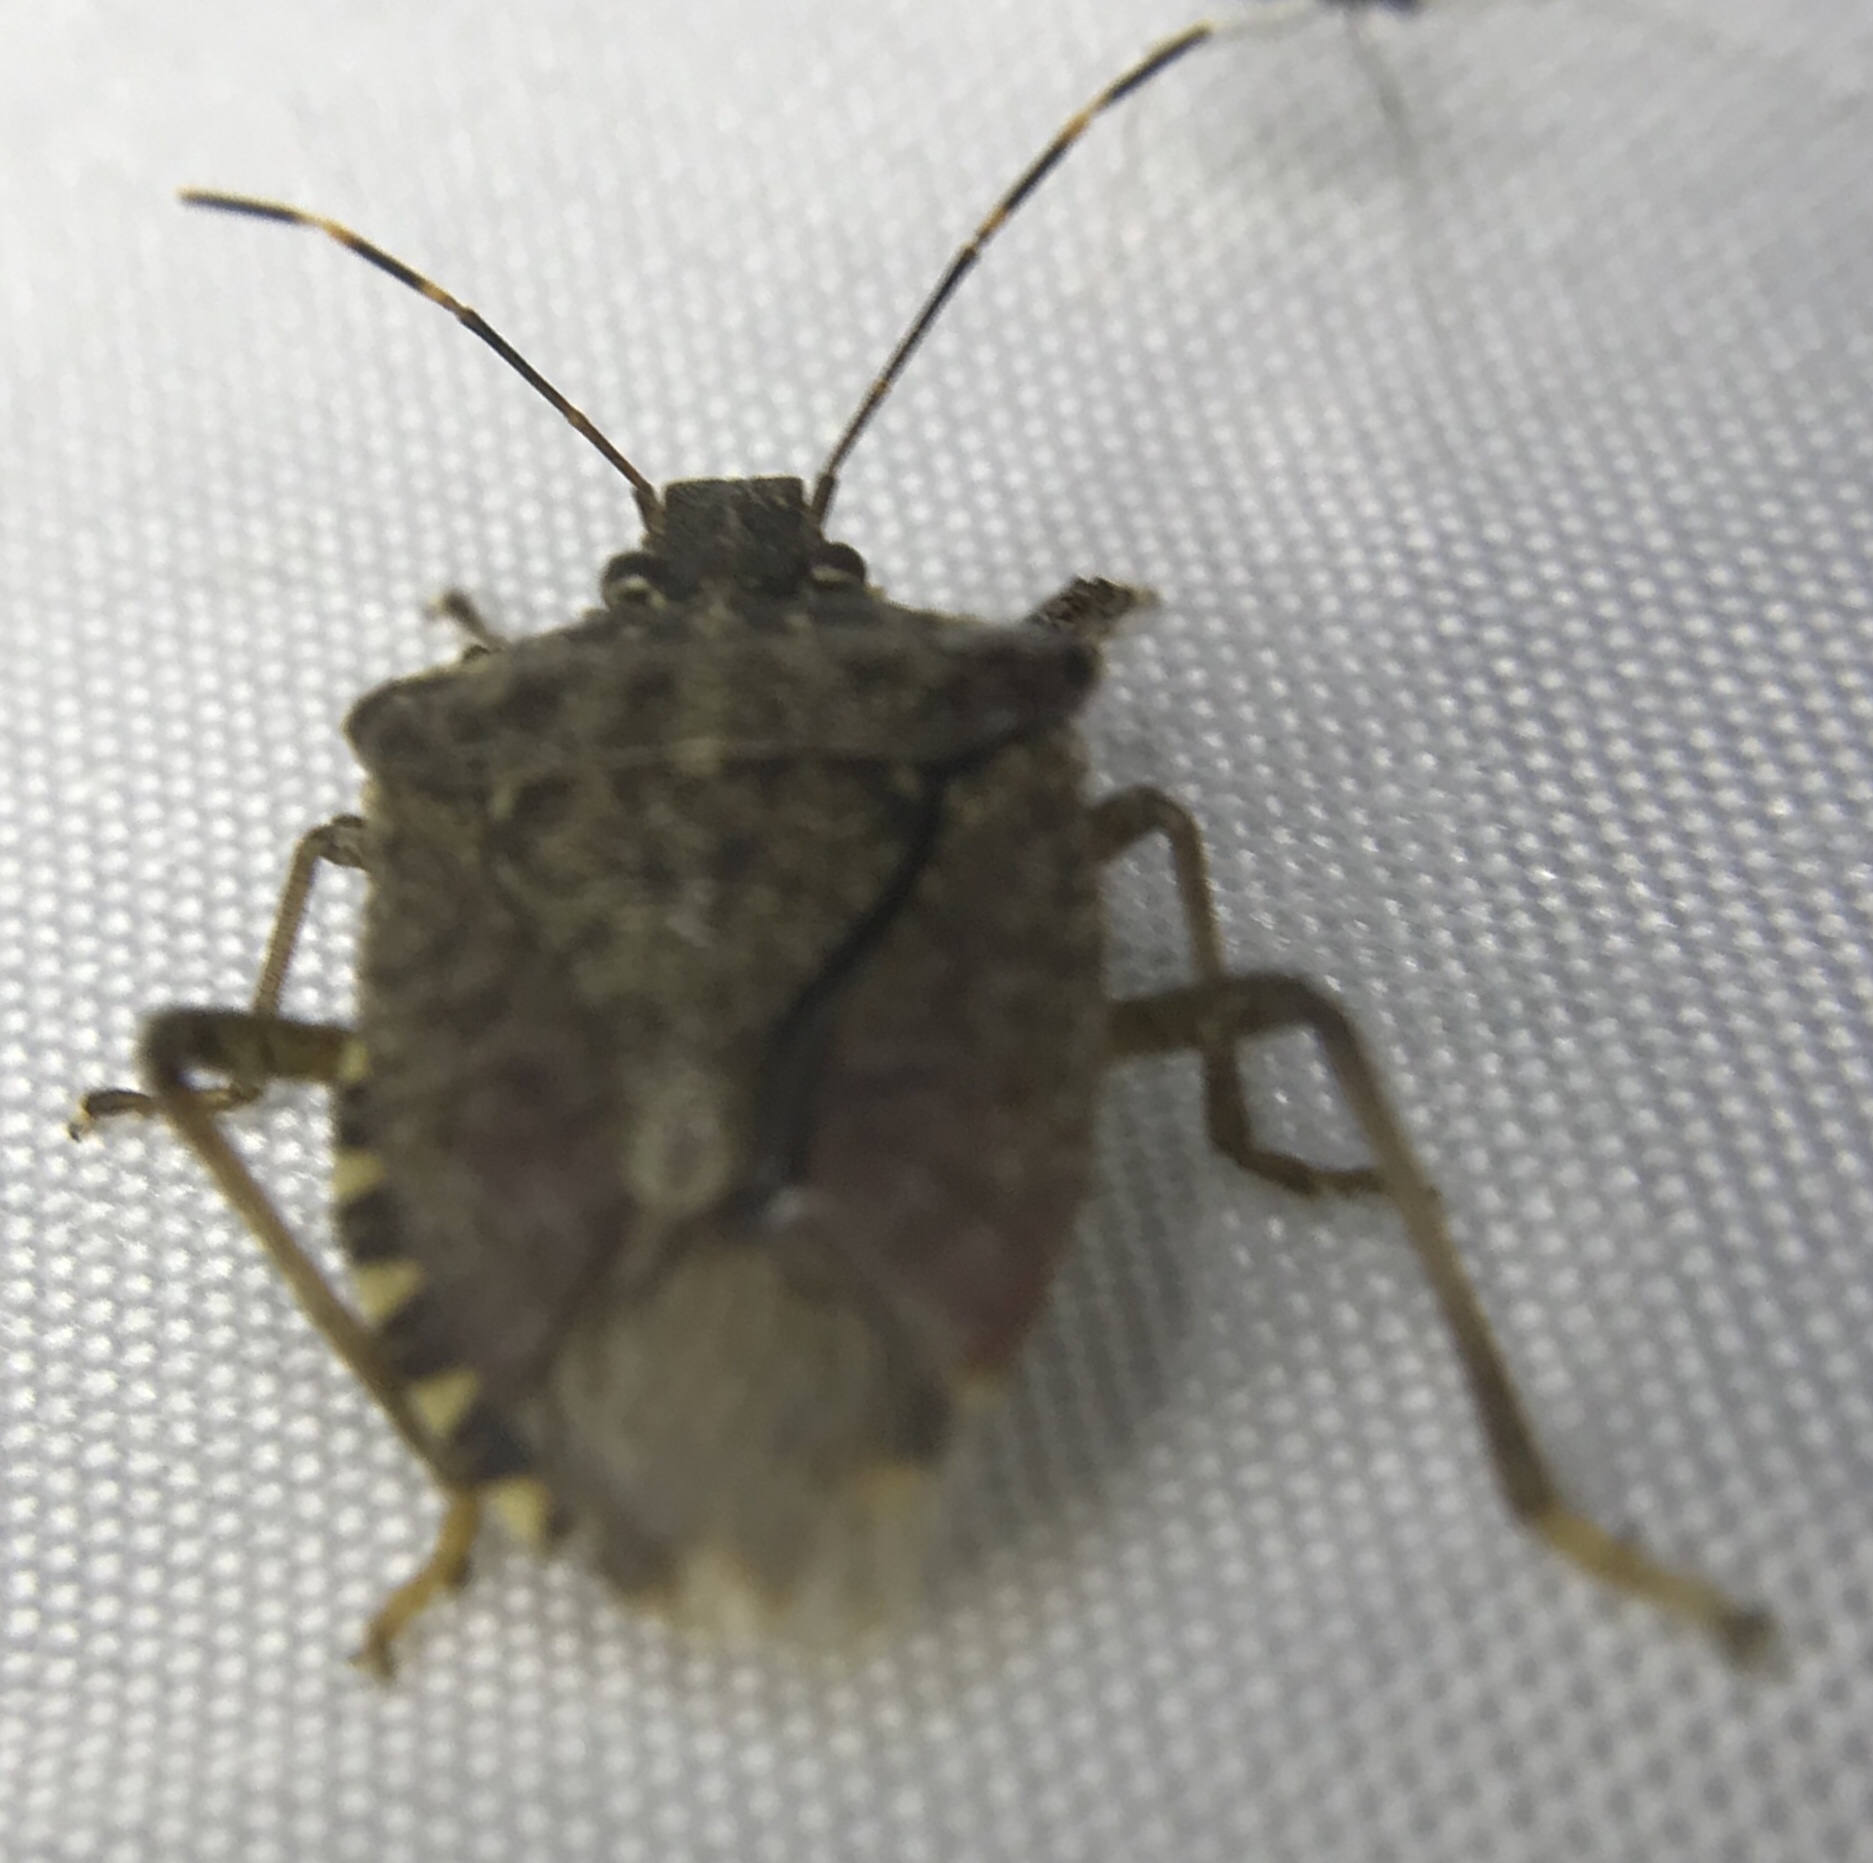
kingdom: Animalia
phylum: Arthropoda
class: Insecta
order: Hemiptera
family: Pentatomidae
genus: Halyomorpha
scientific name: Halyomorpha halys
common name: Brown marmorated stink bug
